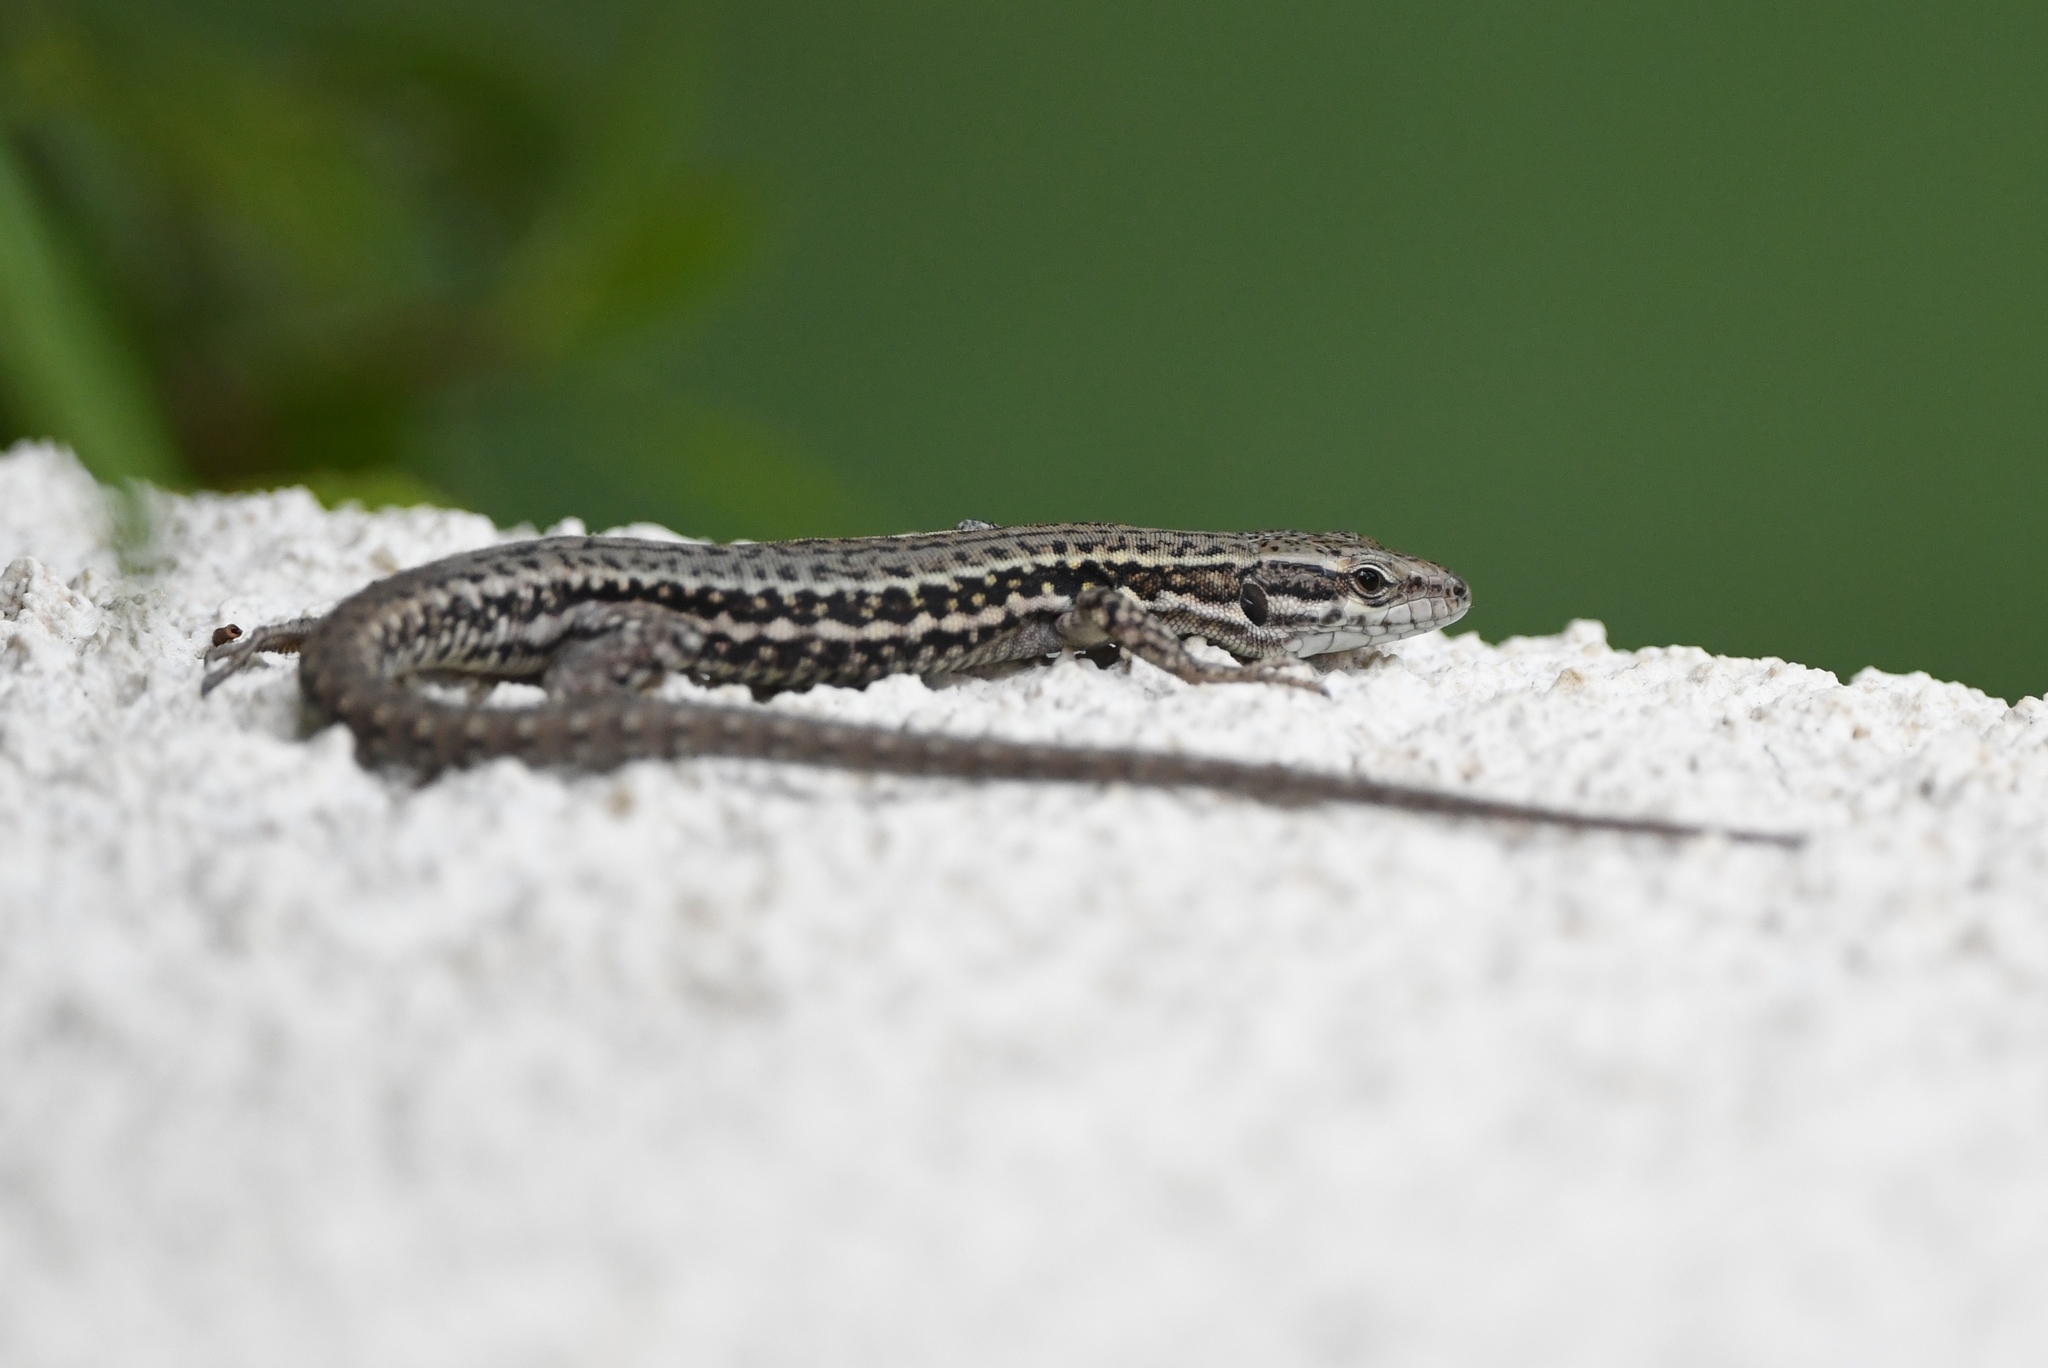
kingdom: Animalia
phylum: Chordata
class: Squamata
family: Lacertidae
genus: Podarcis
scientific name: Podarcis muralis
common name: Common wall lizard
